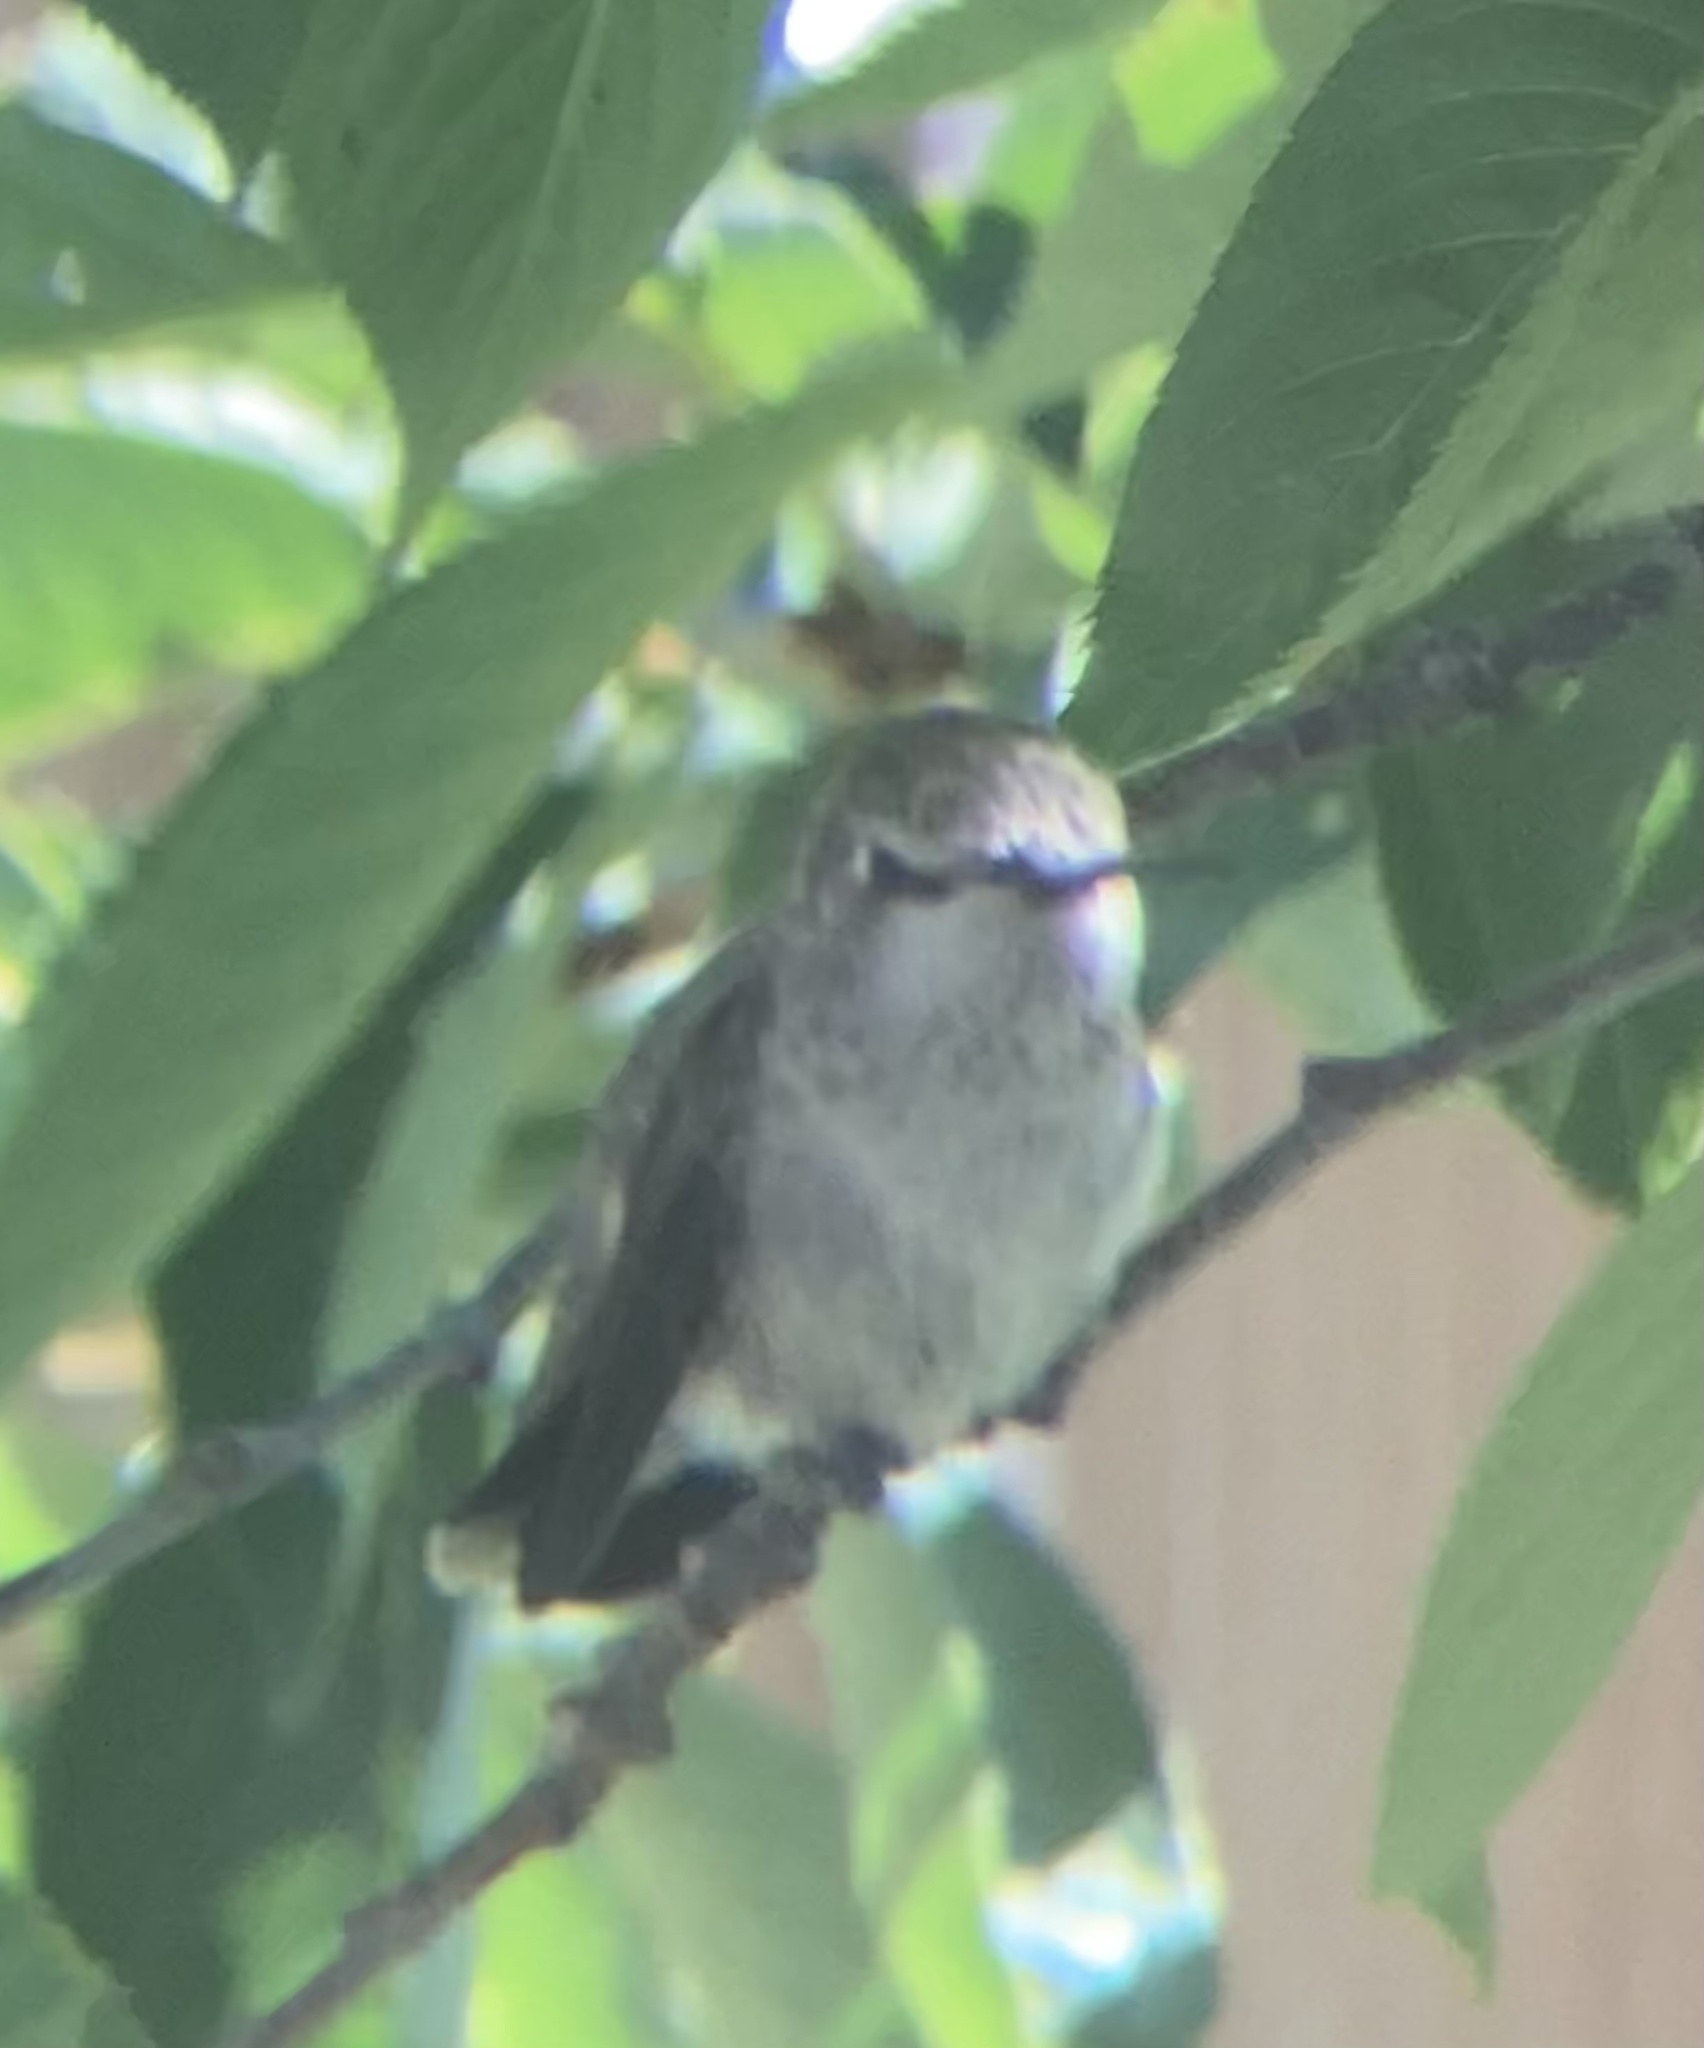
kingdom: Animalia
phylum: Chordata
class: Aves
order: Apodiformes
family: Trochilidae
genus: Calypte
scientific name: Calypte anna
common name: Anna's hummingbird
